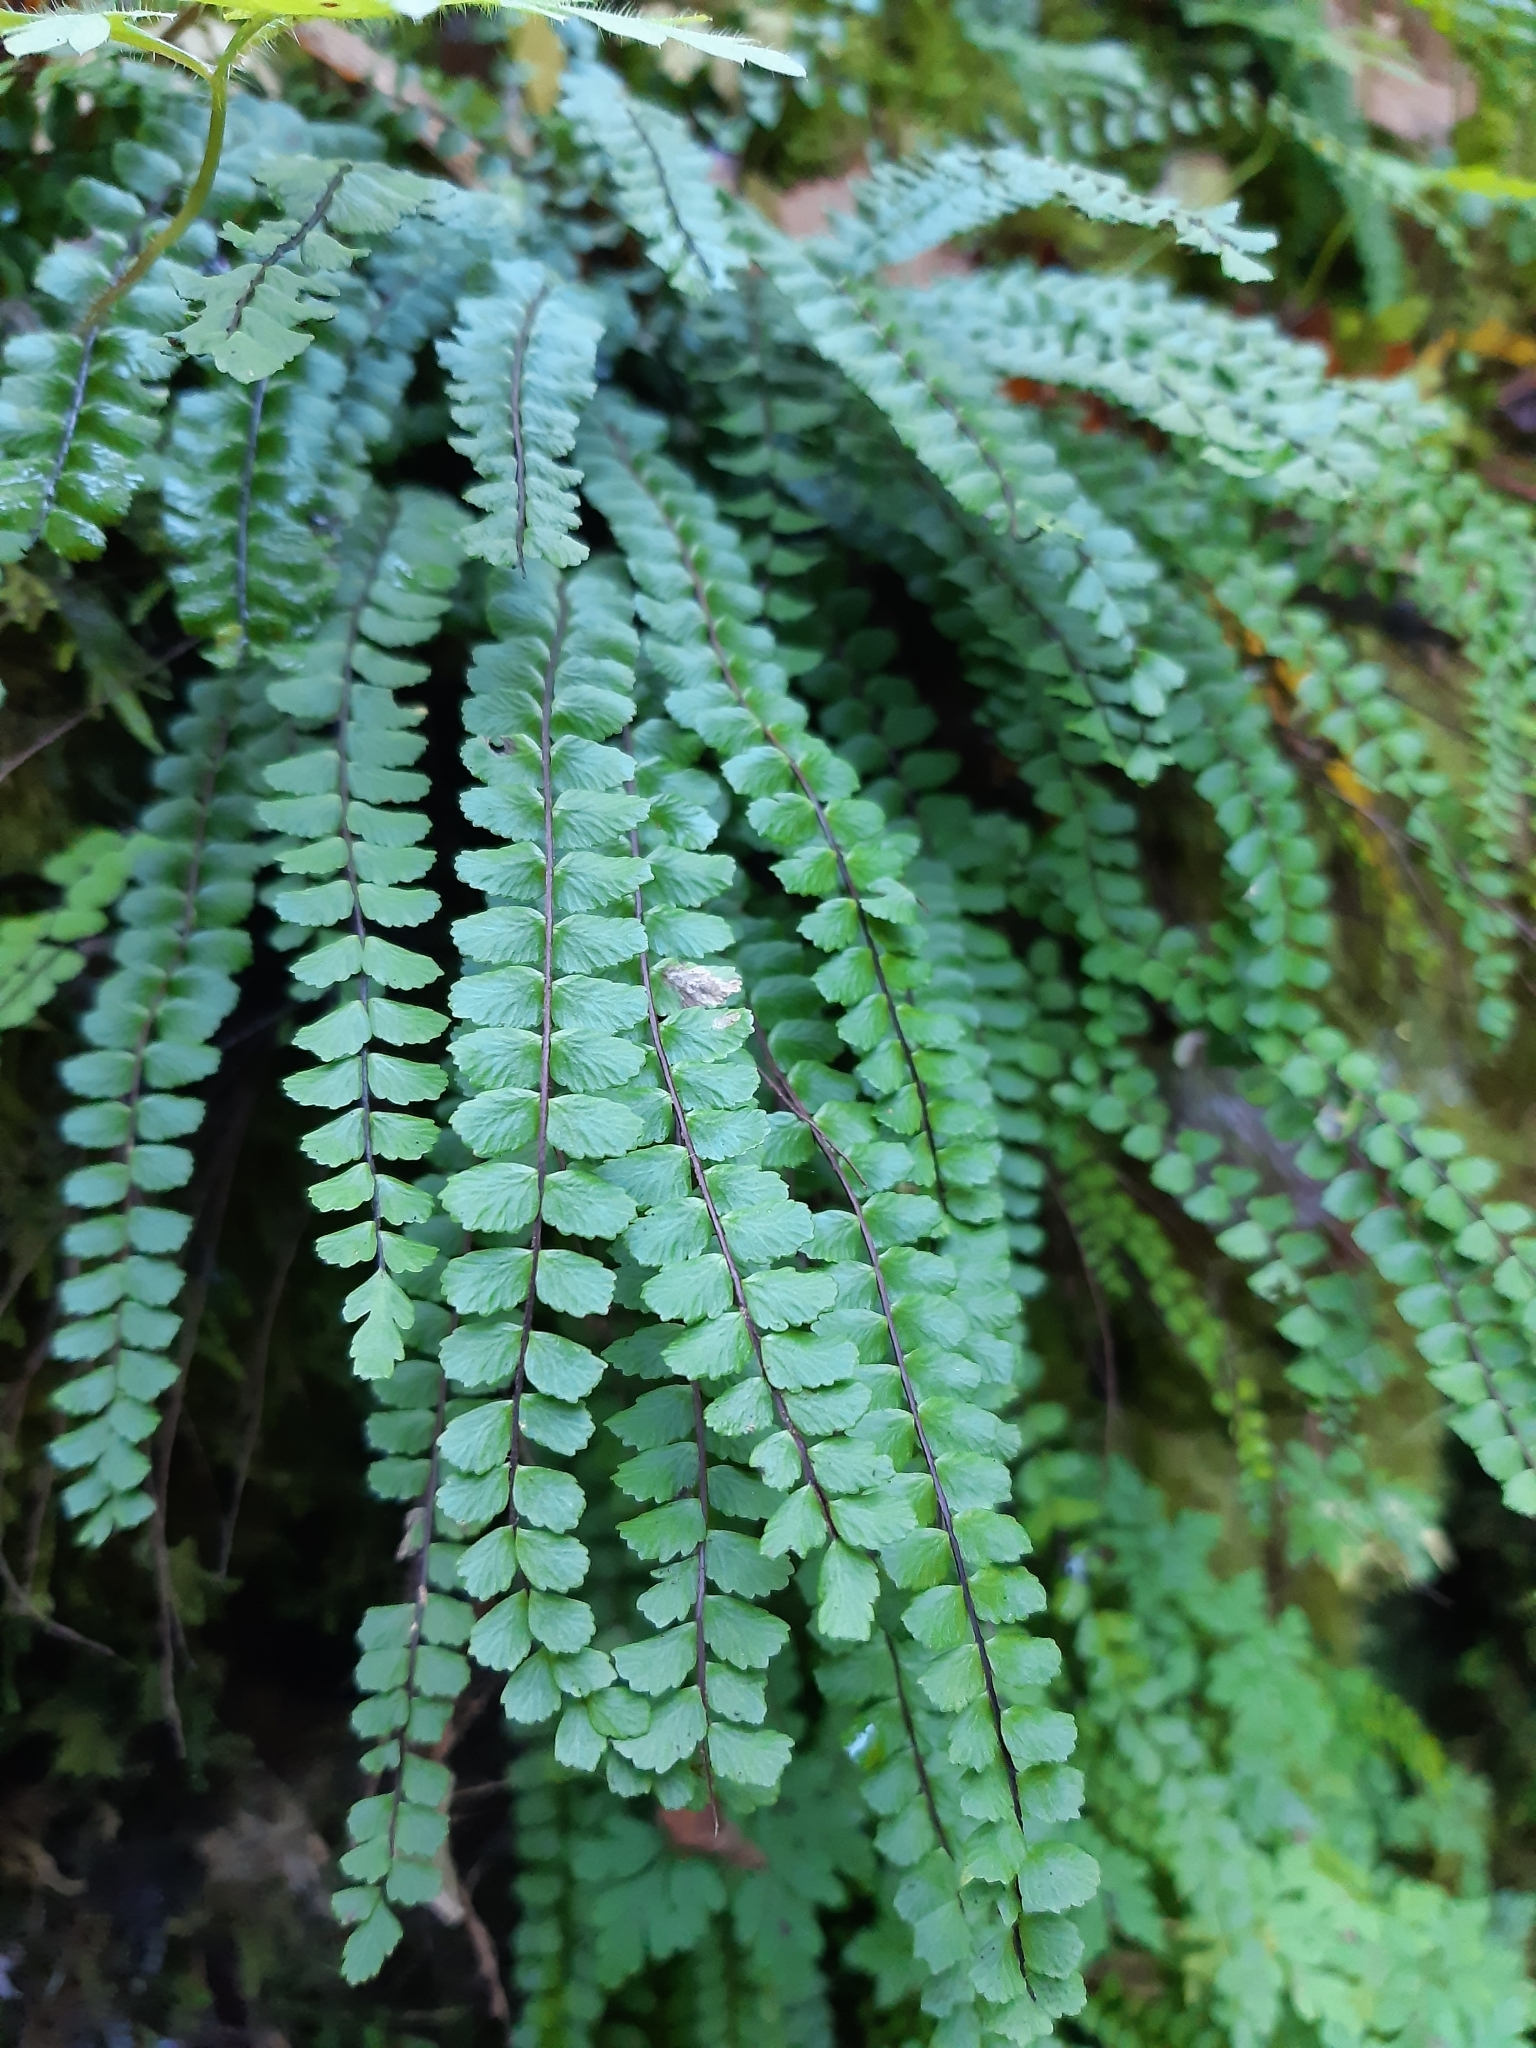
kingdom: Plantae
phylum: Tracheophyta
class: Polypodiopsida
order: Polypodiales
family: Aspleniaceae
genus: Asplenium
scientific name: Asplenium trichomanes
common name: Maidenhair spleenwort
